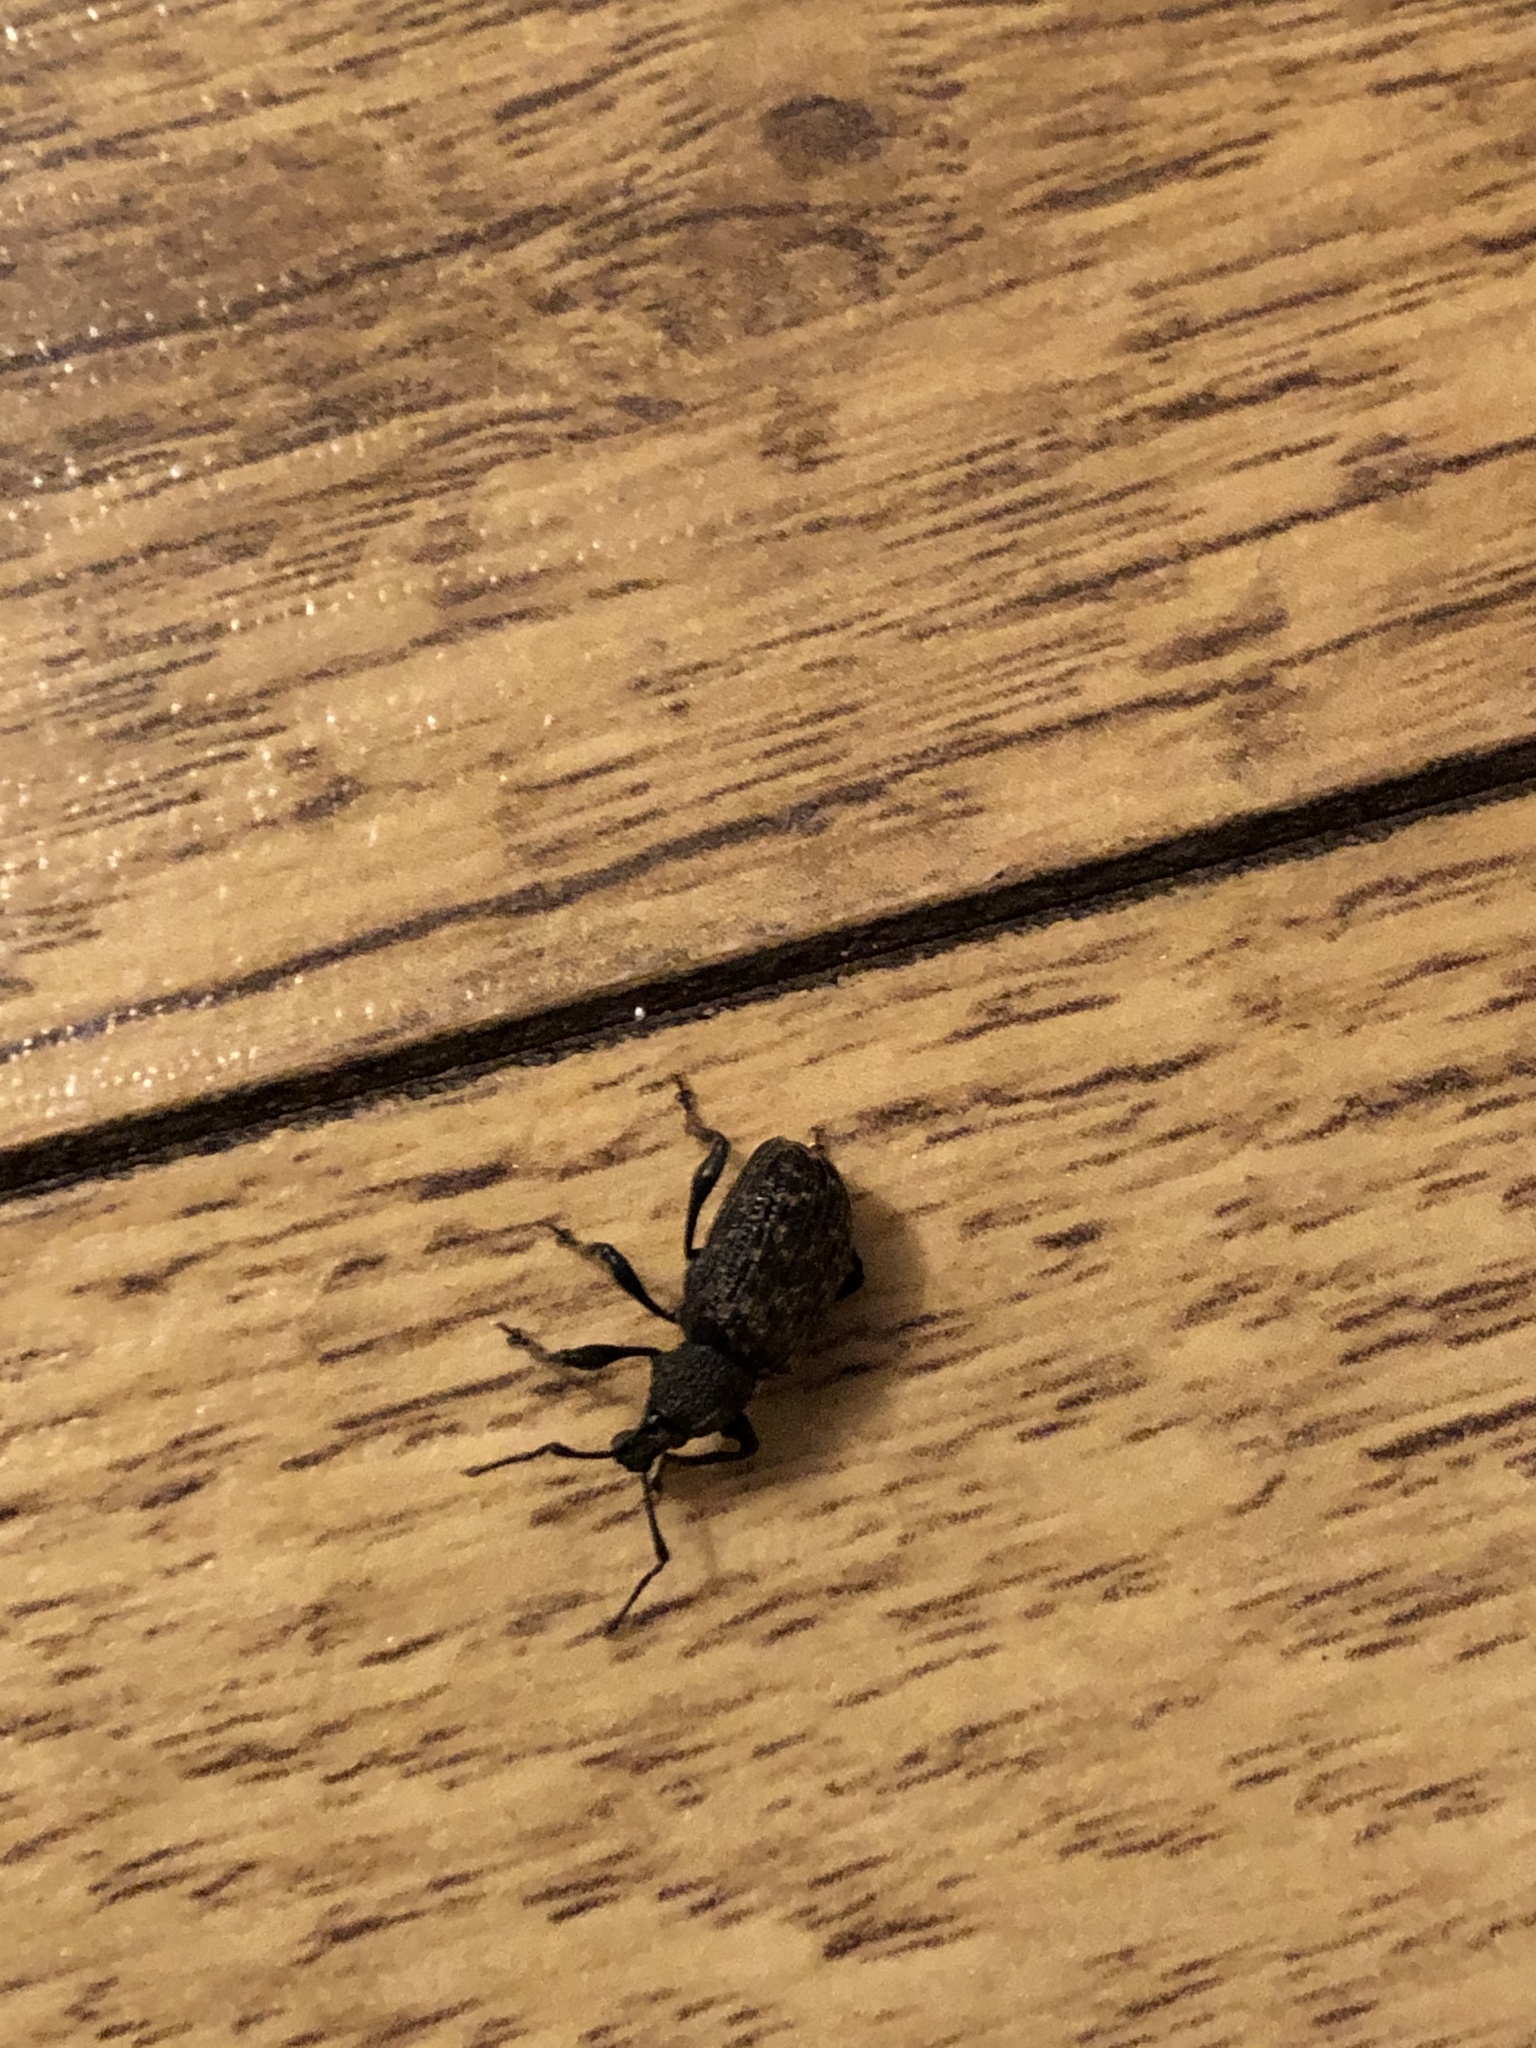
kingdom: Animalia
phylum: Arthropoda
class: Insecta
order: Coleoptera
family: Curculionidae
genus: Otiorhynchus
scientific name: Otiorhynchus sulcatus
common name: Black vine weevil
